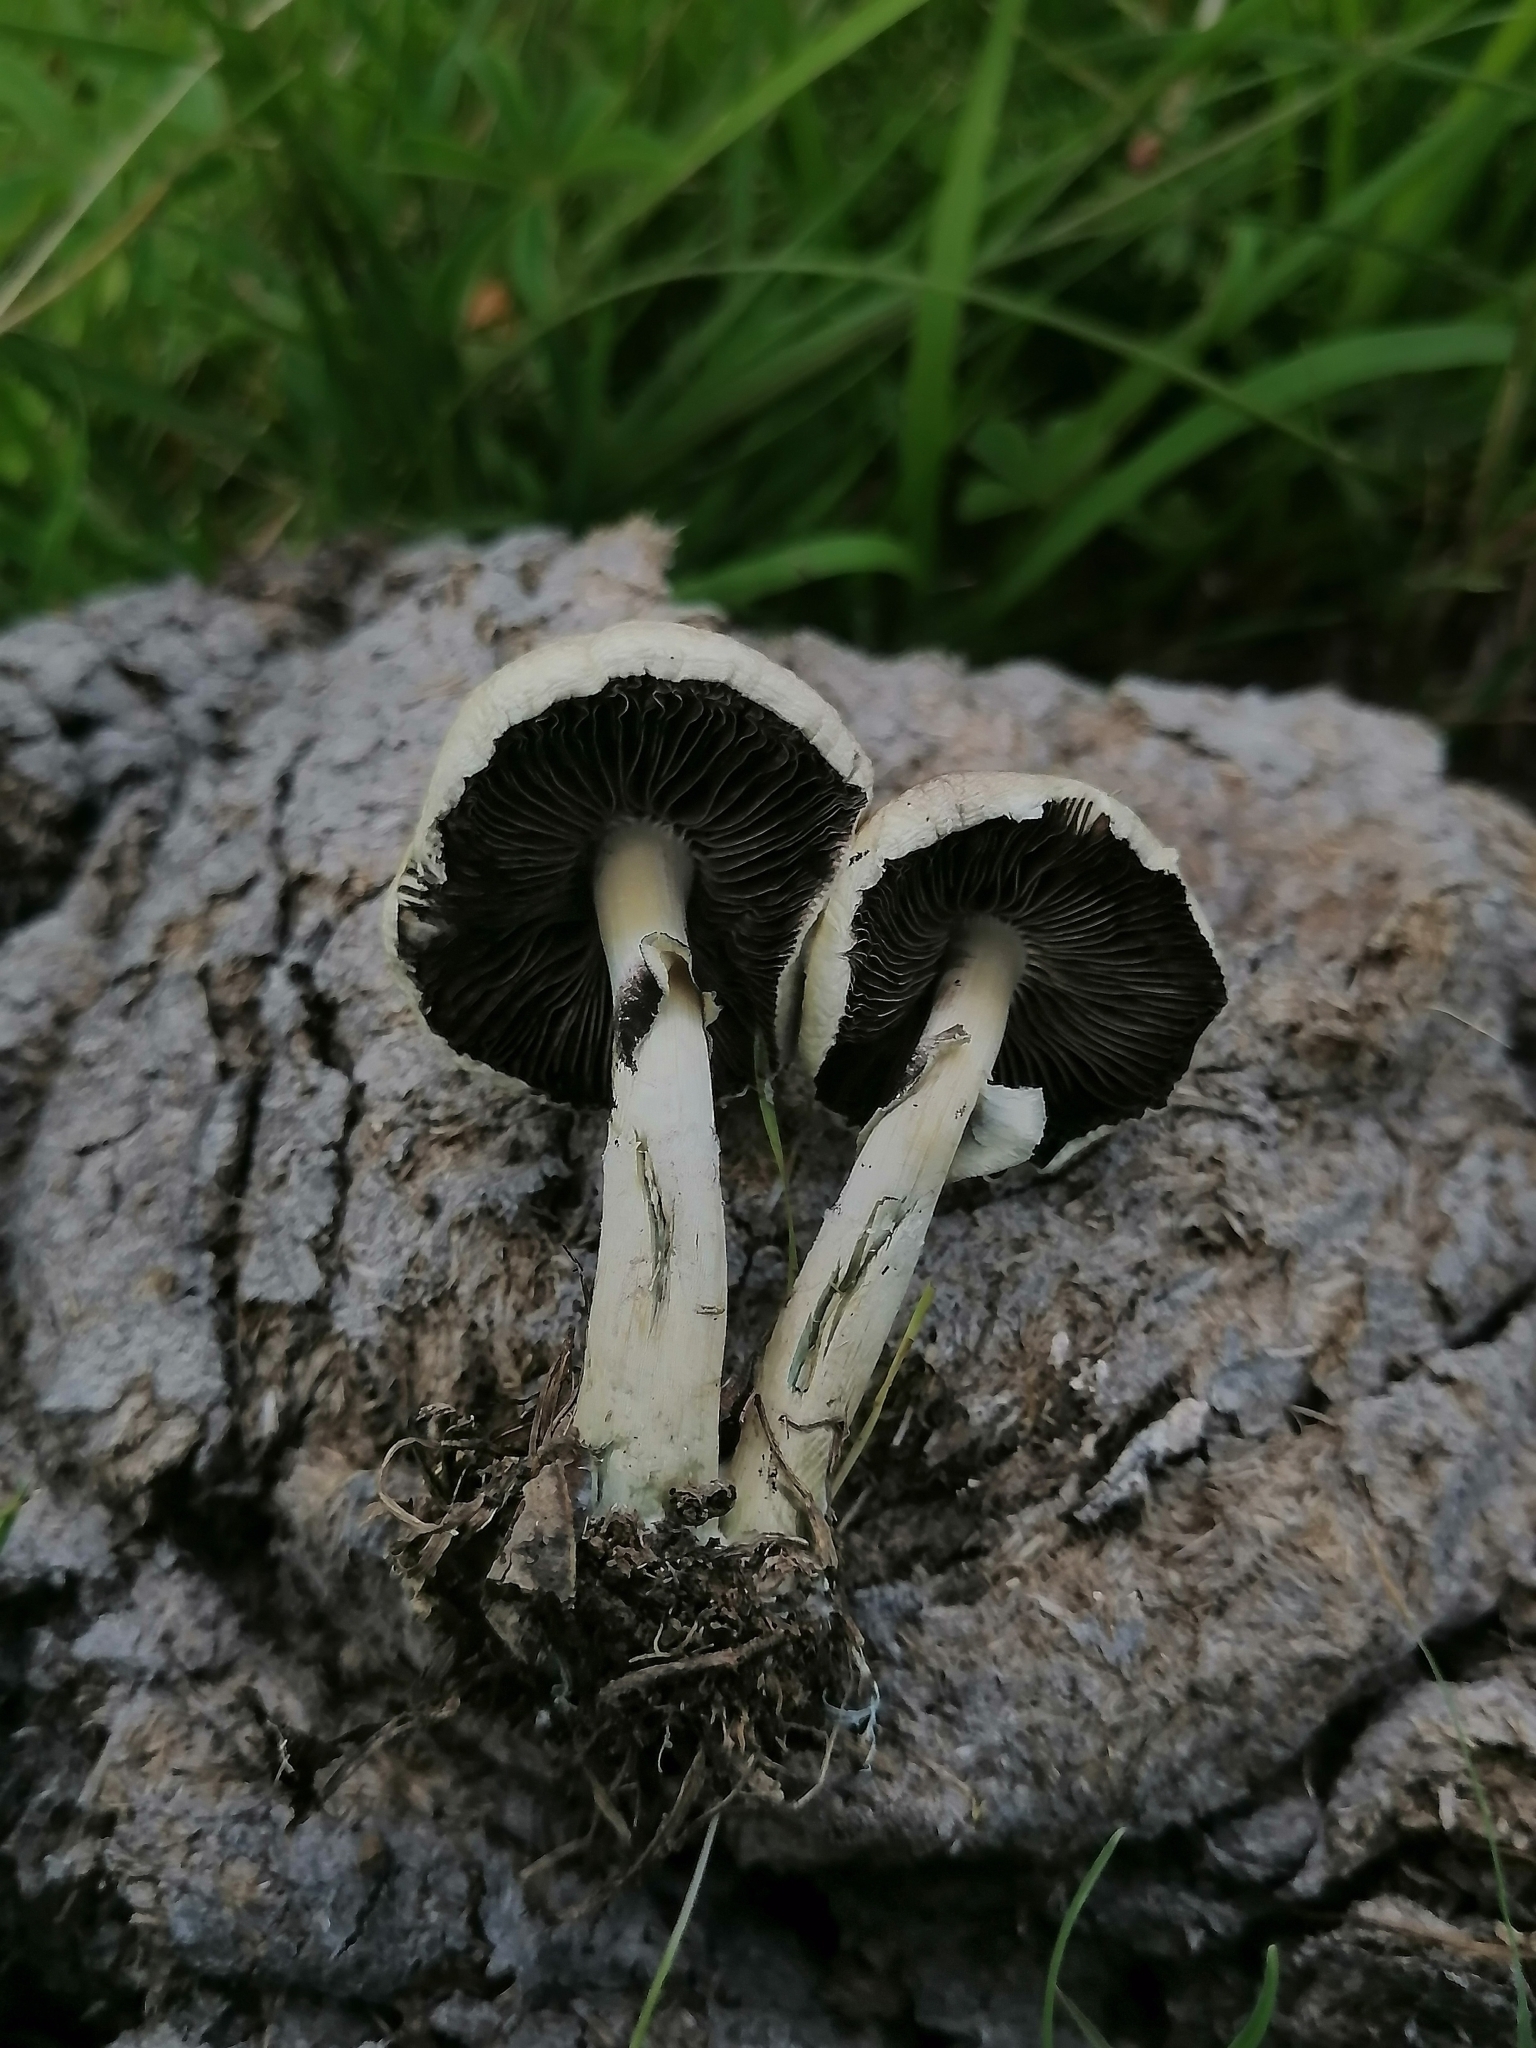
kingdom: Fungi
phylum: Basidiomycota
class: Agaricomycetes
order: Agaricales
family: Hymenogastraceae
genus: Psilocybe
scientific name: Psilocybe cubensis
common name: Golden brownie
